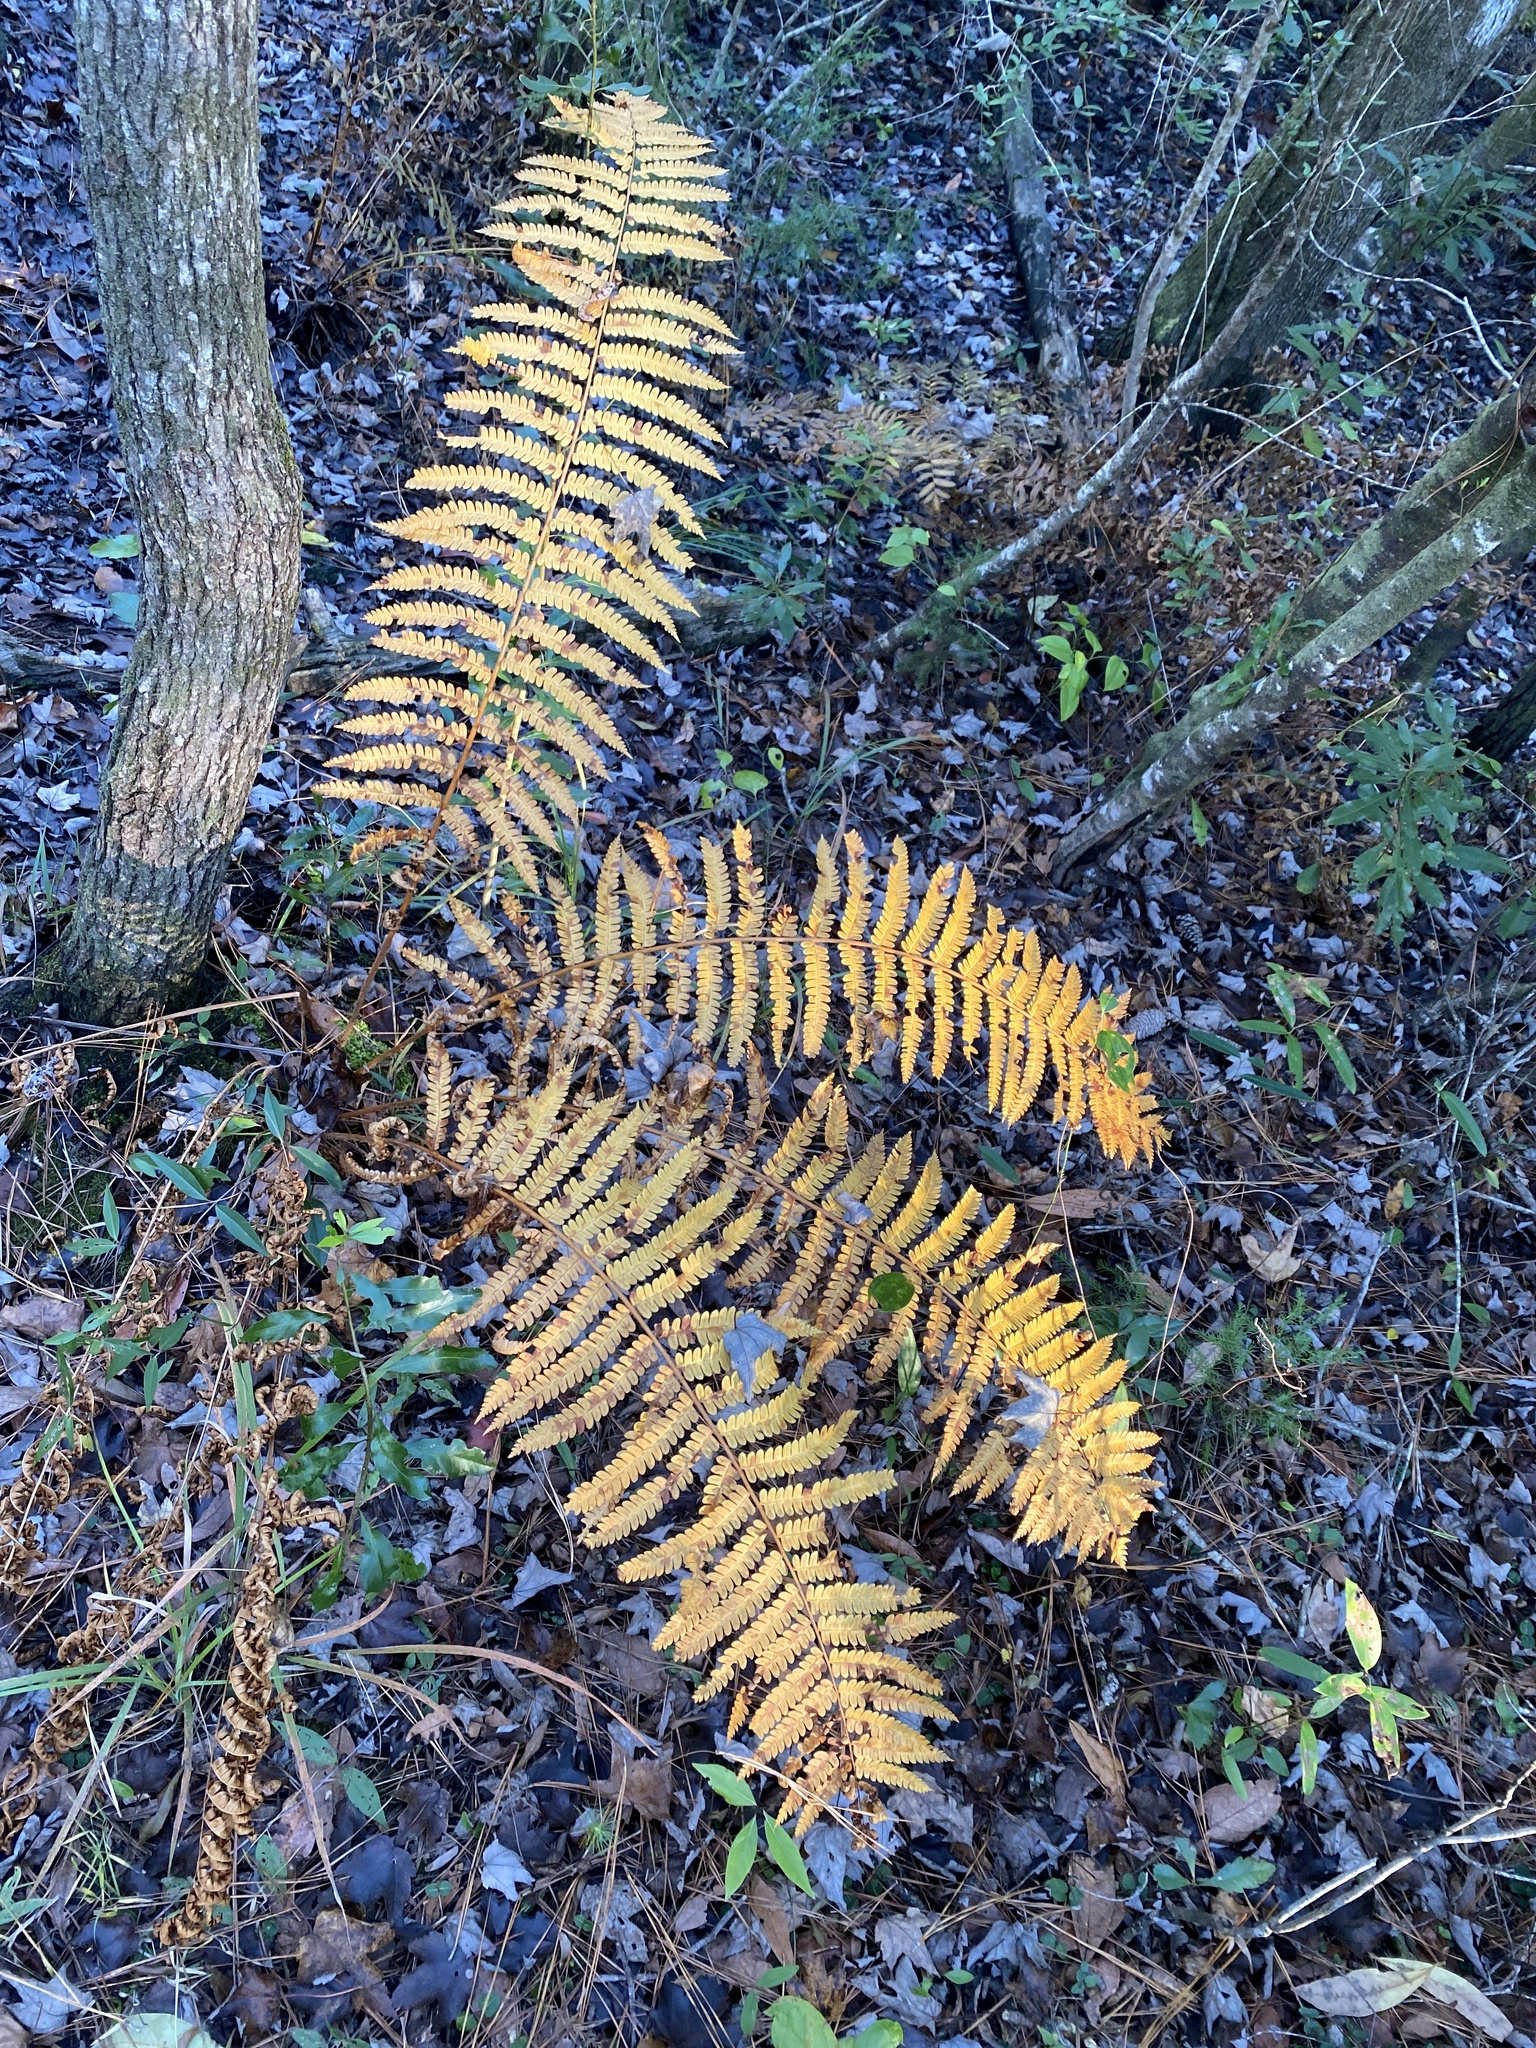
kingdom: Plantae
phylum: Tracheophyta
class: Polypodiopsida
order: Osmundales
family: Osmundaceae
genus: Osmundastrum
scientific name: Osmundastrum cinnamomeum
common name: Cinnamon fern
